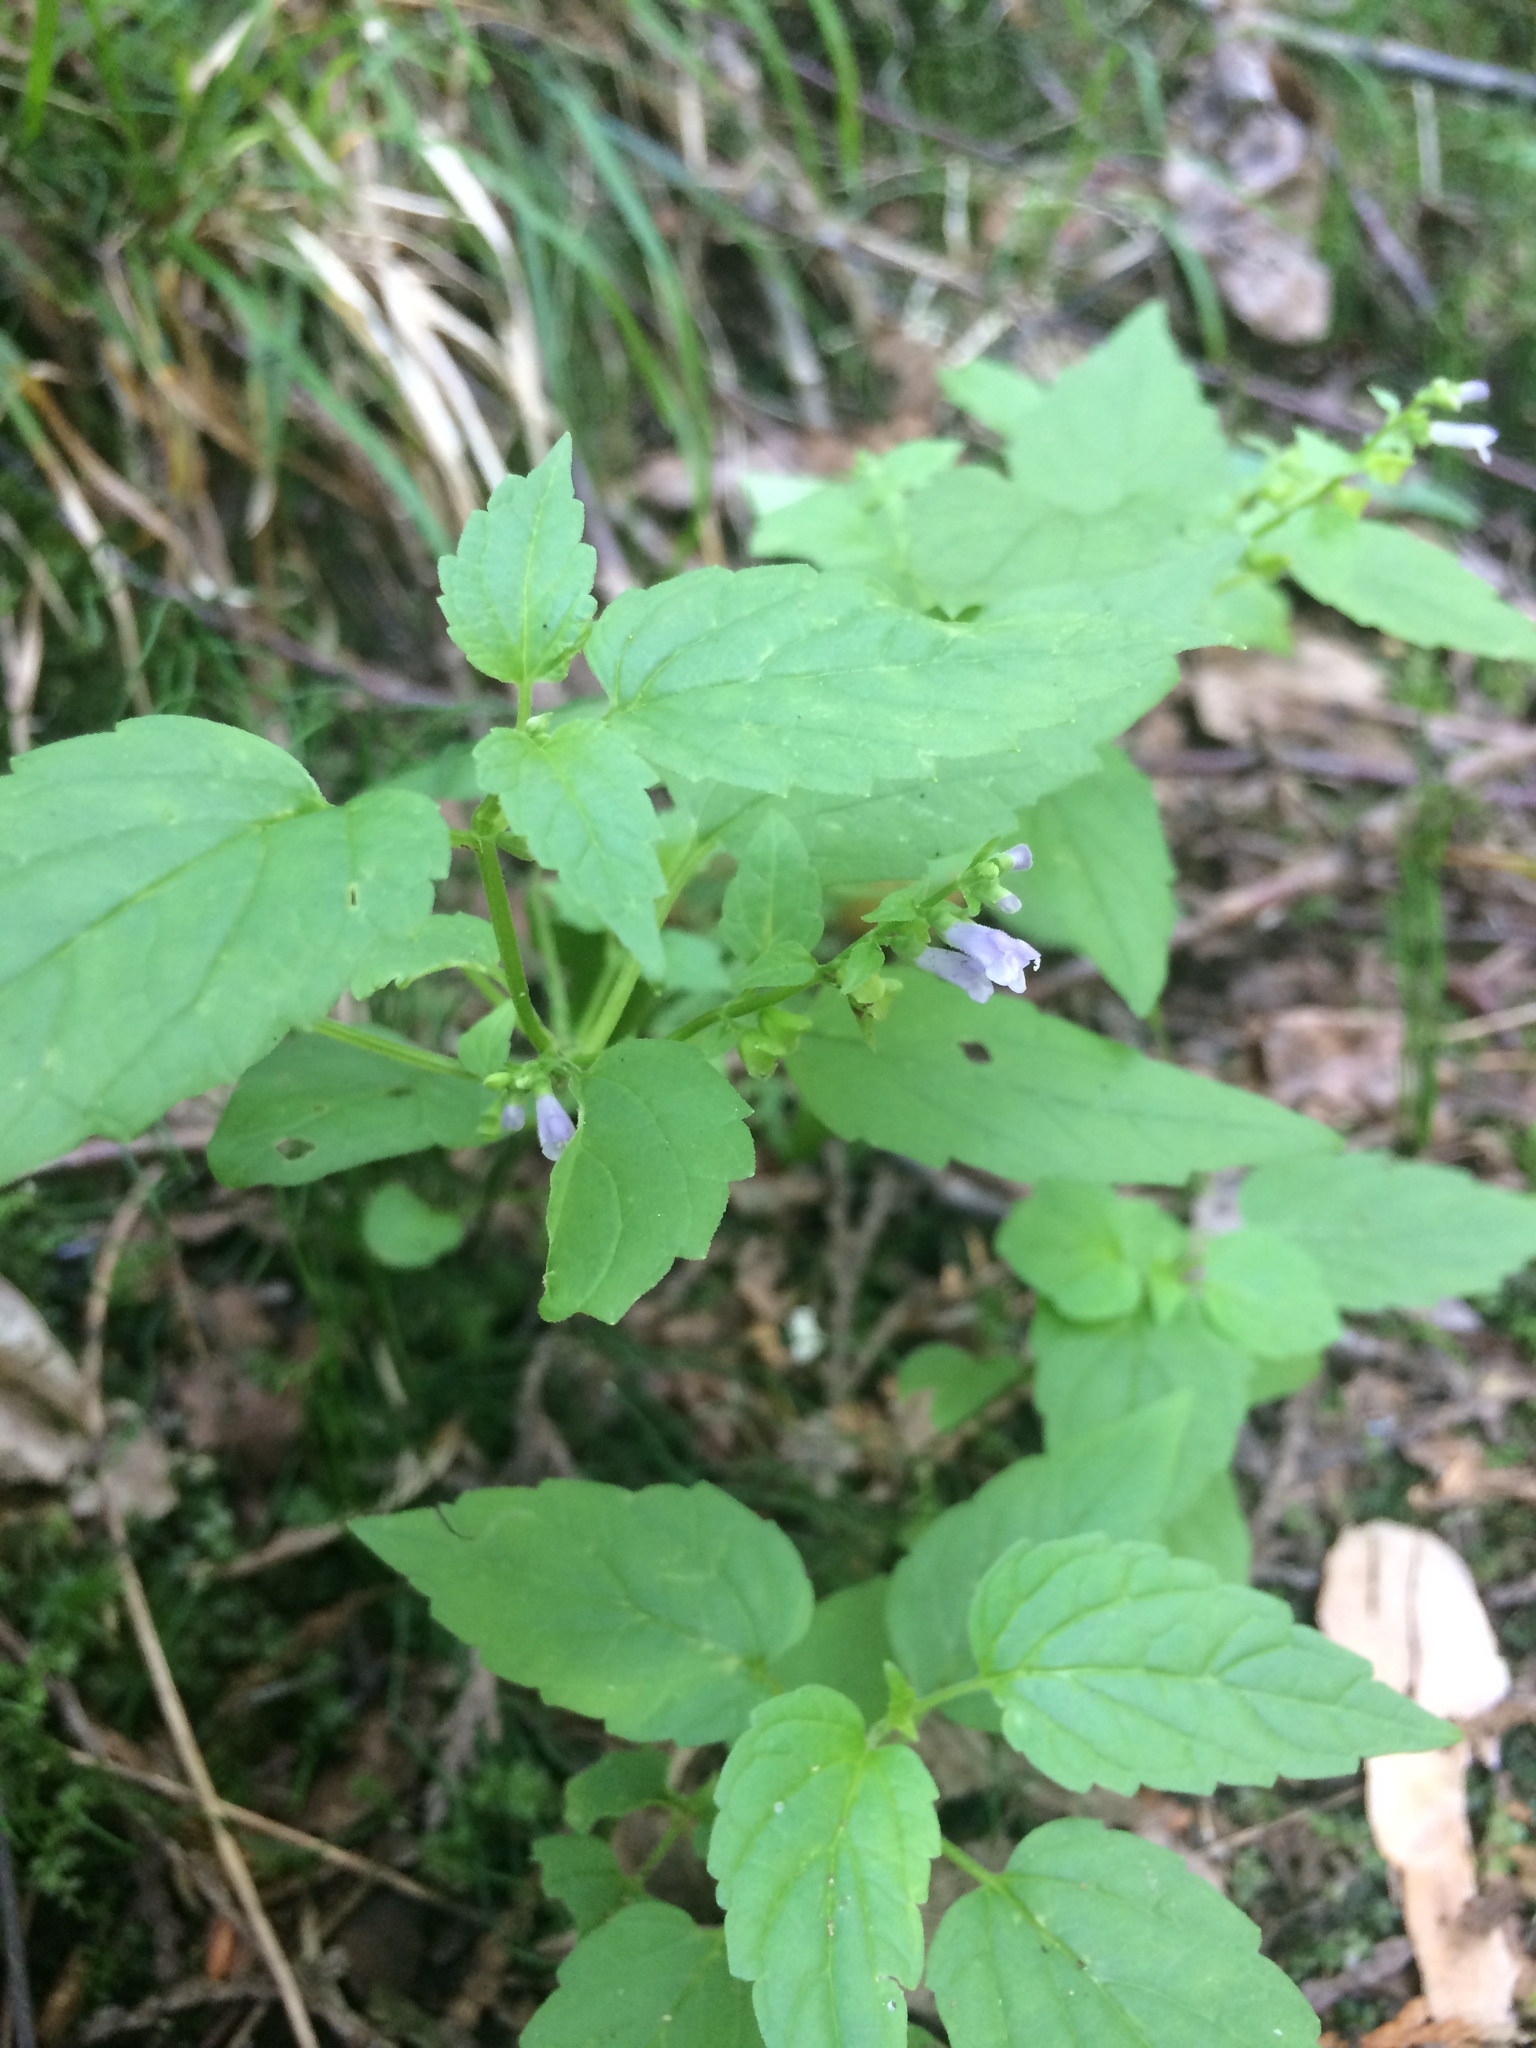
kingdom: Plantae
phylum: Tracheophyta
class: Magnoliopsida
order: Lamiales
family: Lamiaceae
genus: Scutellaria
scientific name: Scutellaria lateriflora
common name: Blue skullcap
